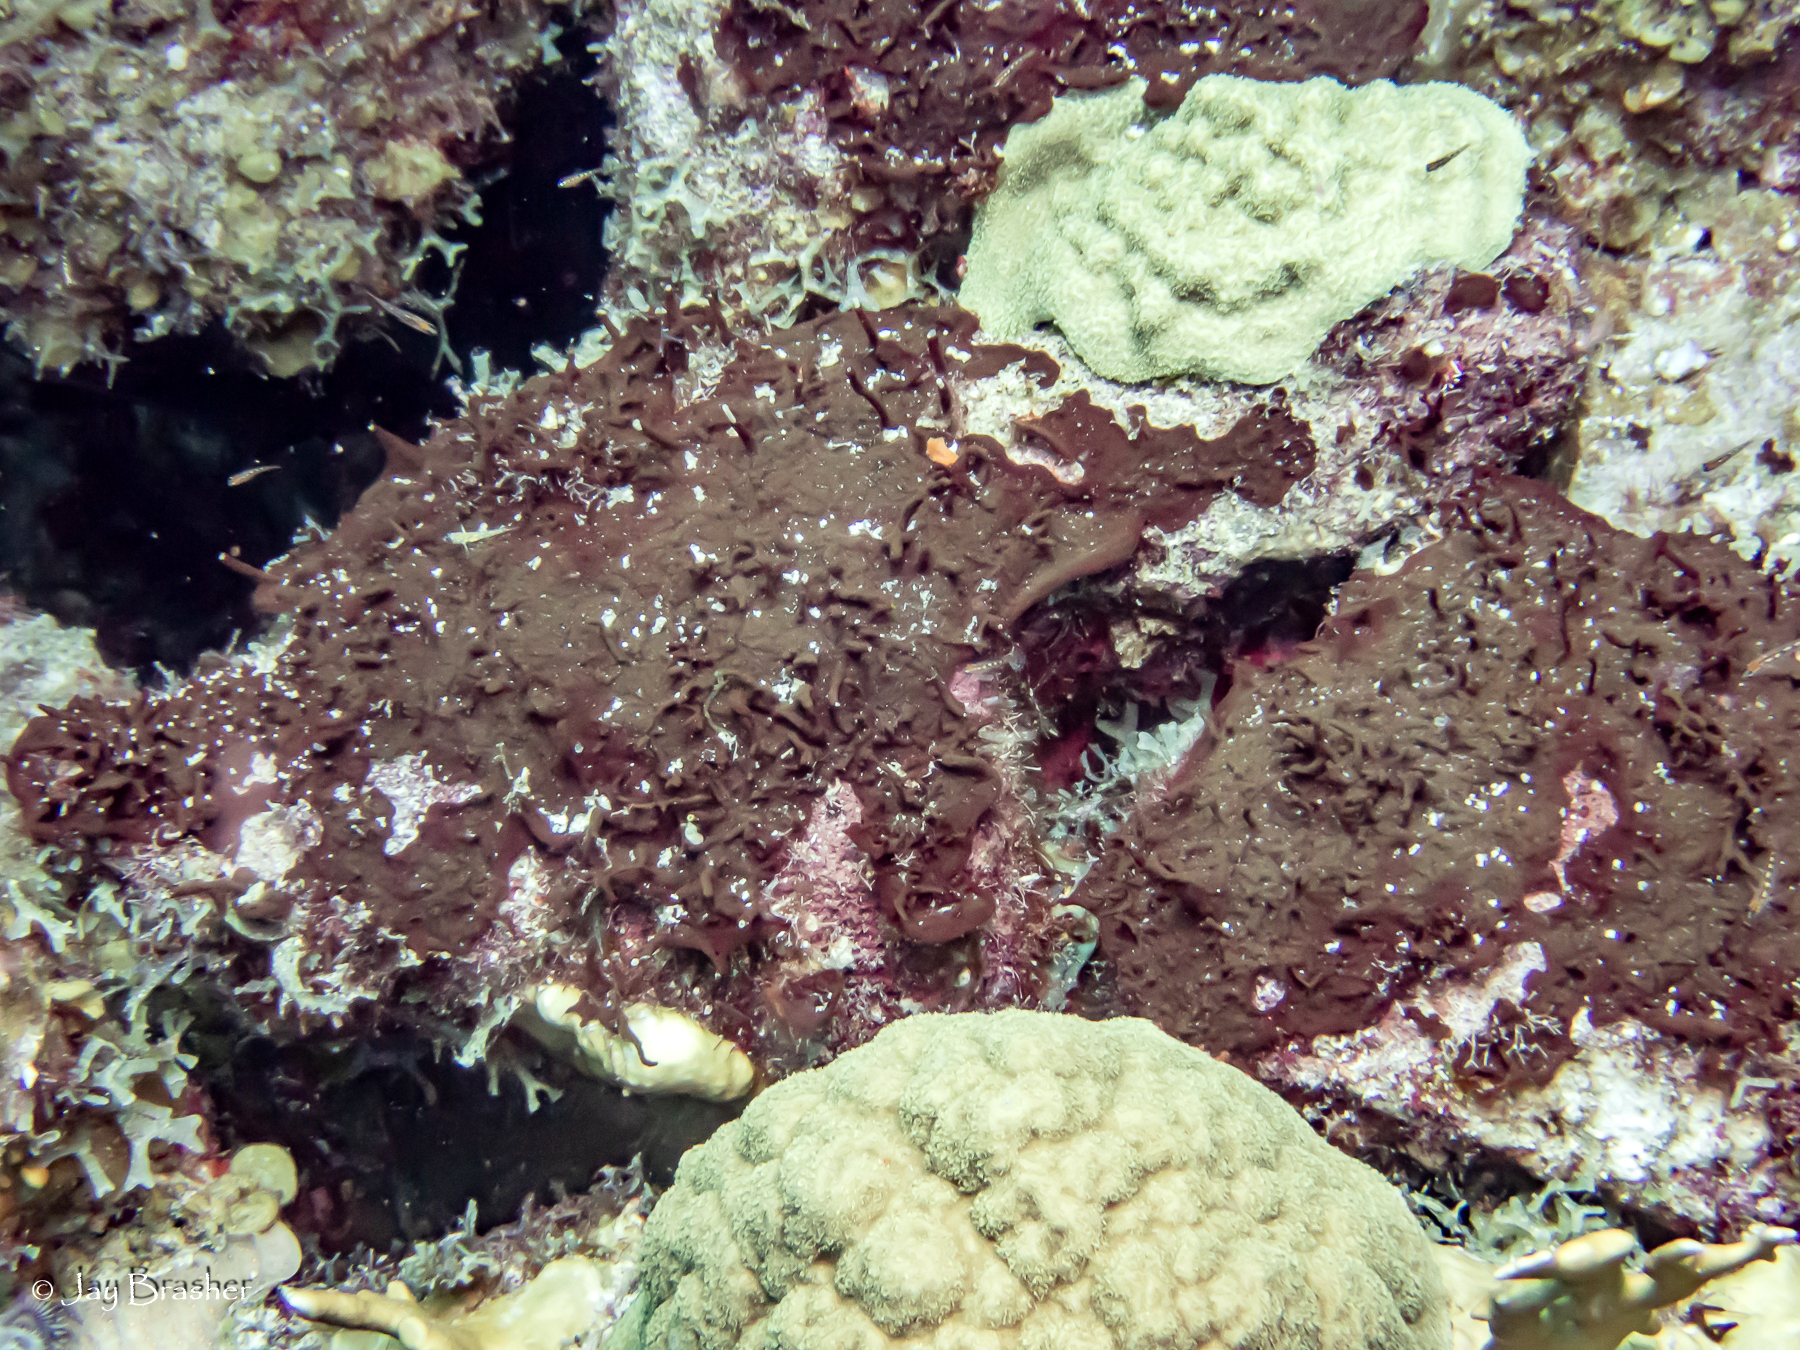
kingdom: Animalia
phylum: Cnidaria
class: Anthozoa
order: Scleractinia
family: Poritidae
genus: Porites
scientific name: Porites astreoides
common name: Mustard hill coral
